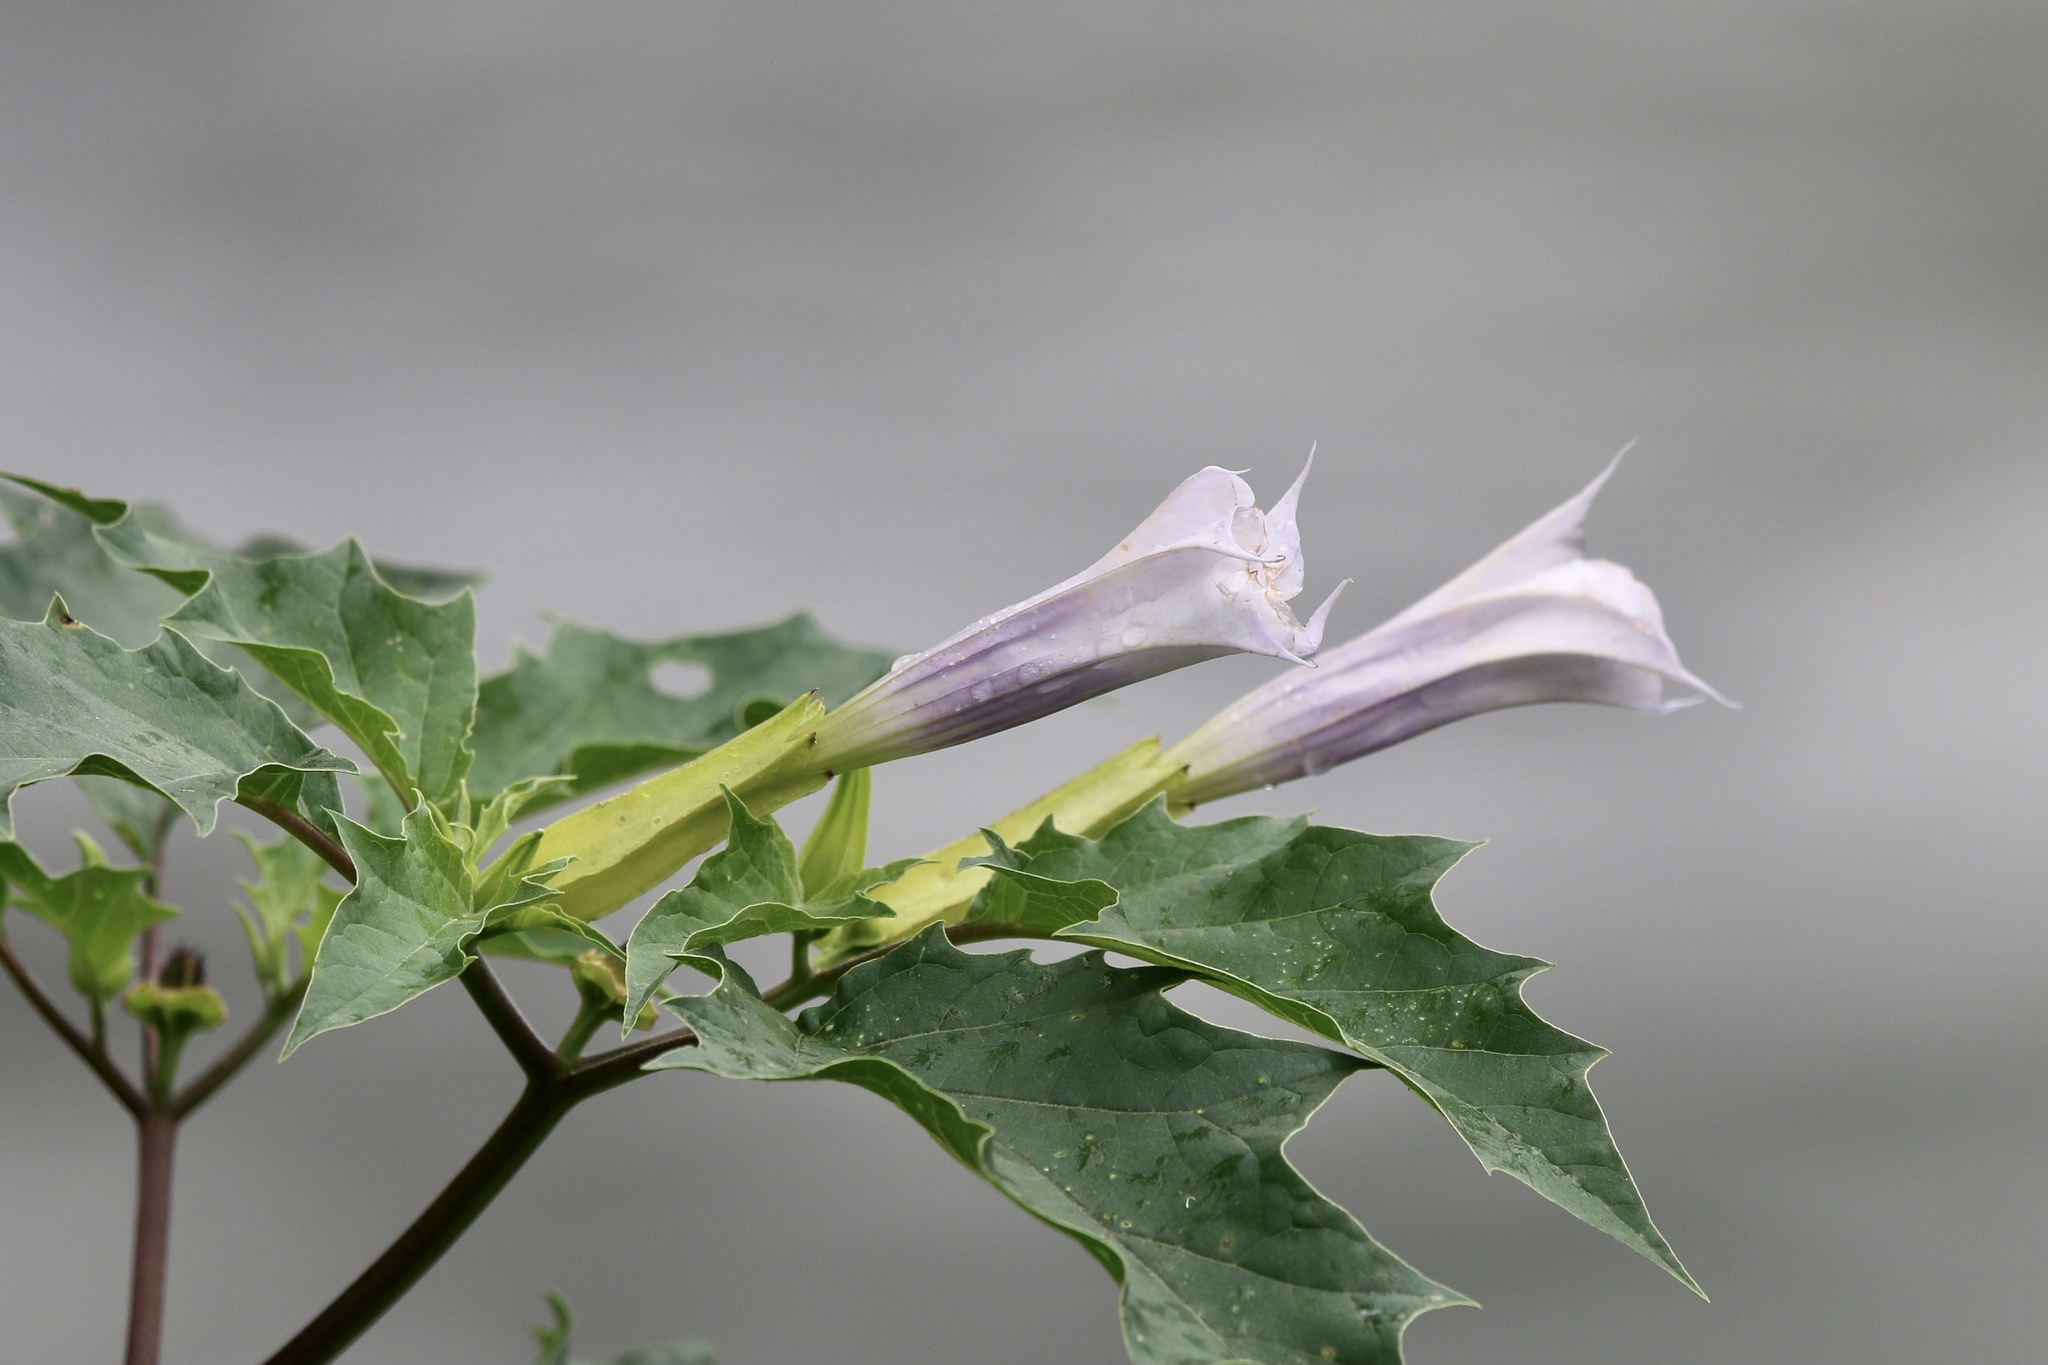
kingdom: Plantae
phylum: Tracheophyta
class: Magnoliopsida
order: Solanales
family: Solanaceae
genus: Datura
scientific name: Datura stramonium
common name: Thorn-apple
